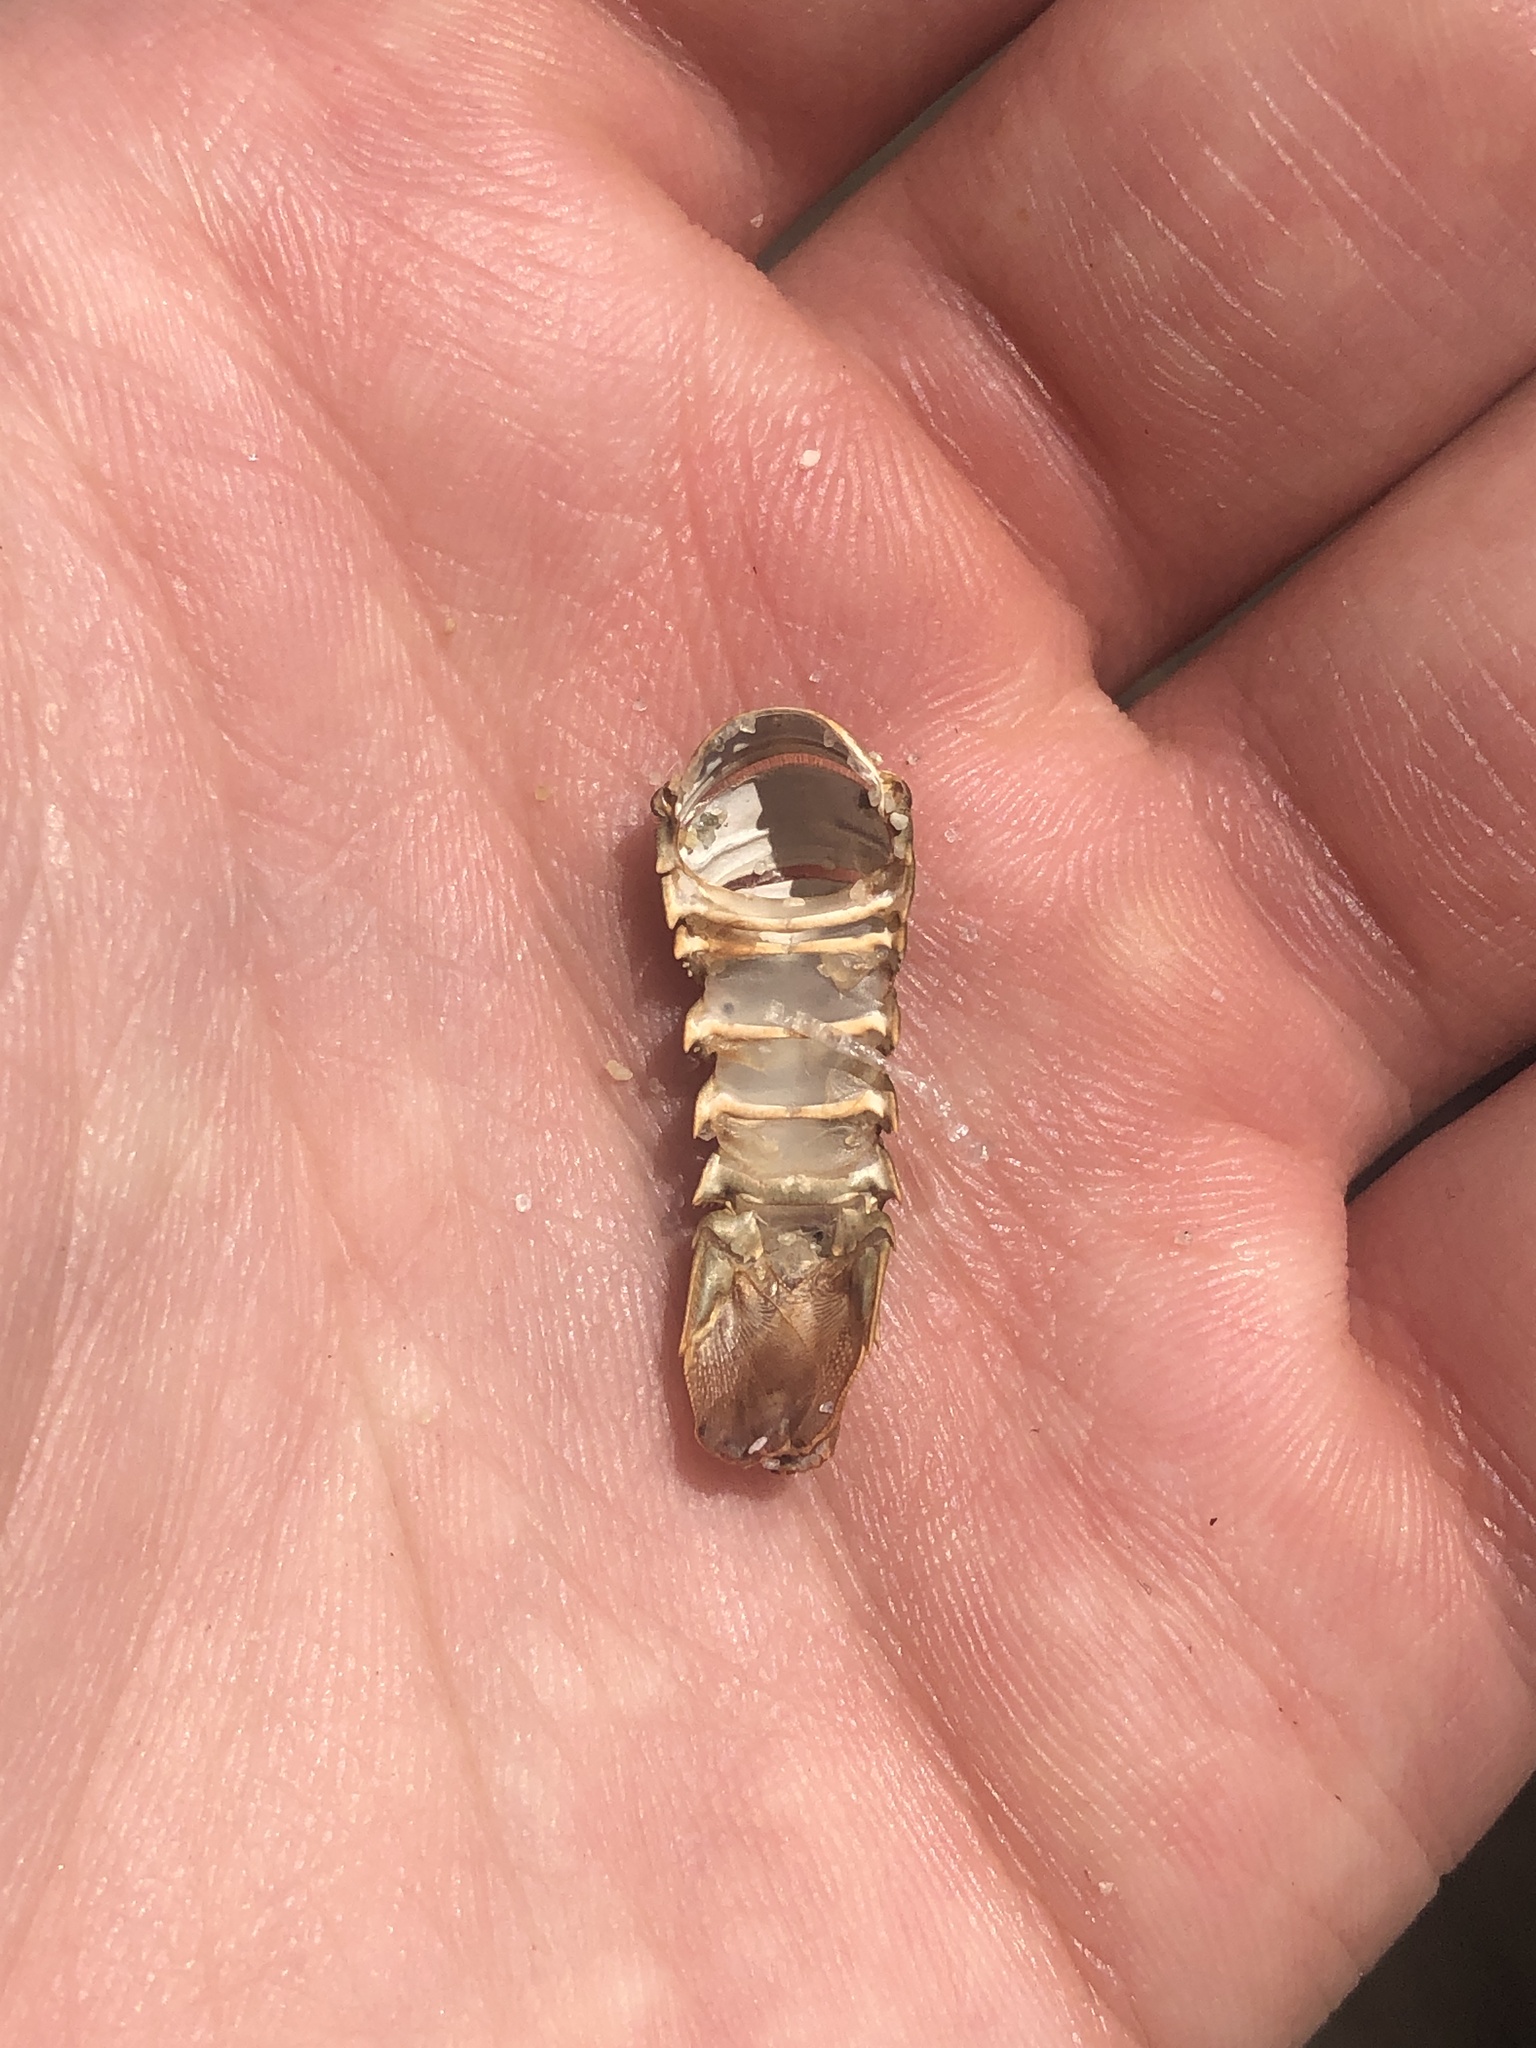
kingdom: Animalia
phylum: Arthropoda
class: Malacostraca
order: Decapoda
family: Palinuridae
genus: Panulirus
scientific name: Panulirus interruptus
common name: California spiny lobster
